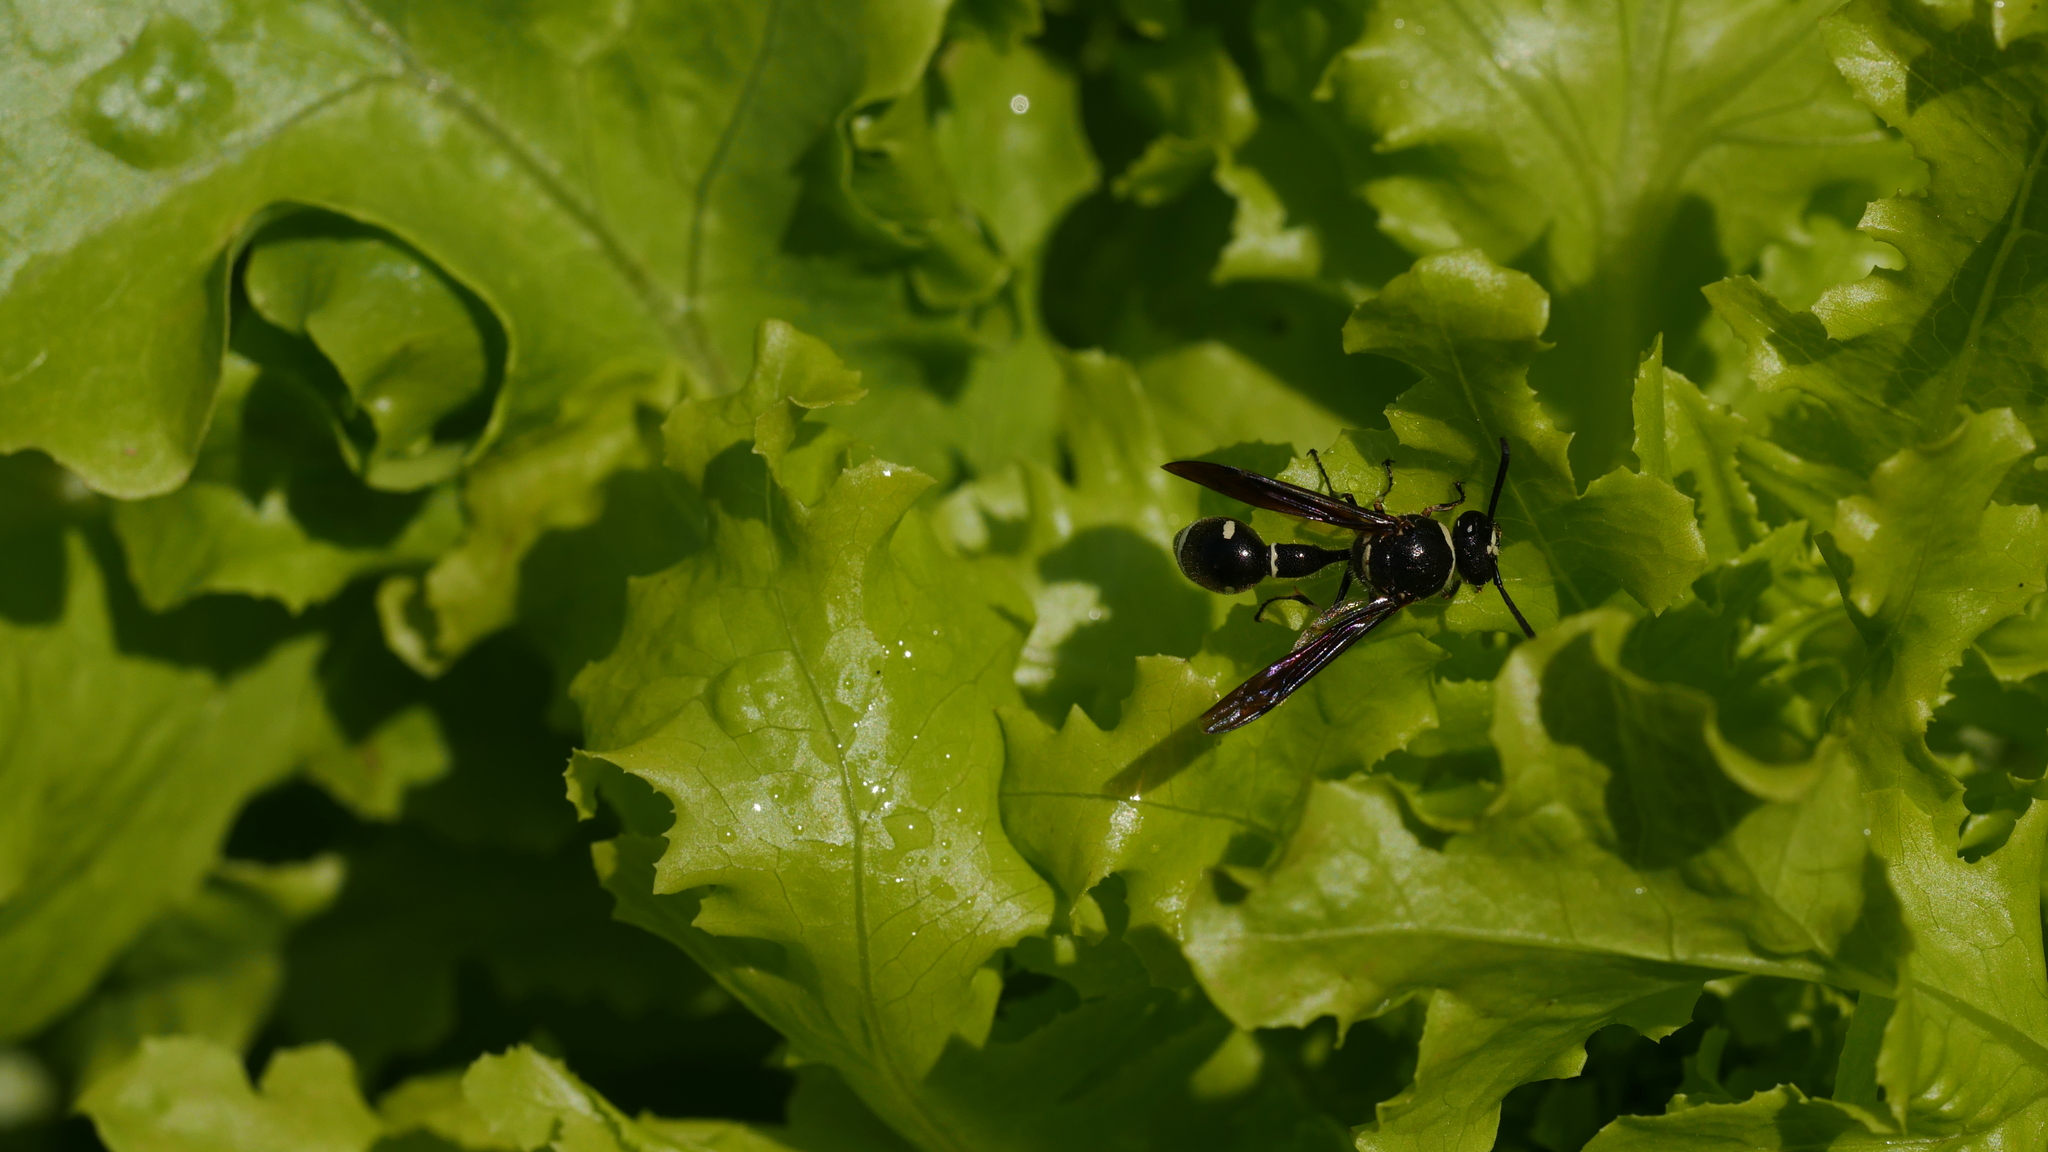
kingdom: Animalia
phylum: Arthropoda
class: Insecta
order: Hymenoptera
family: Vespidae
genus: Eumenes
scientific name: Eumenes fraternus
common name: Fraternal potter wasp
